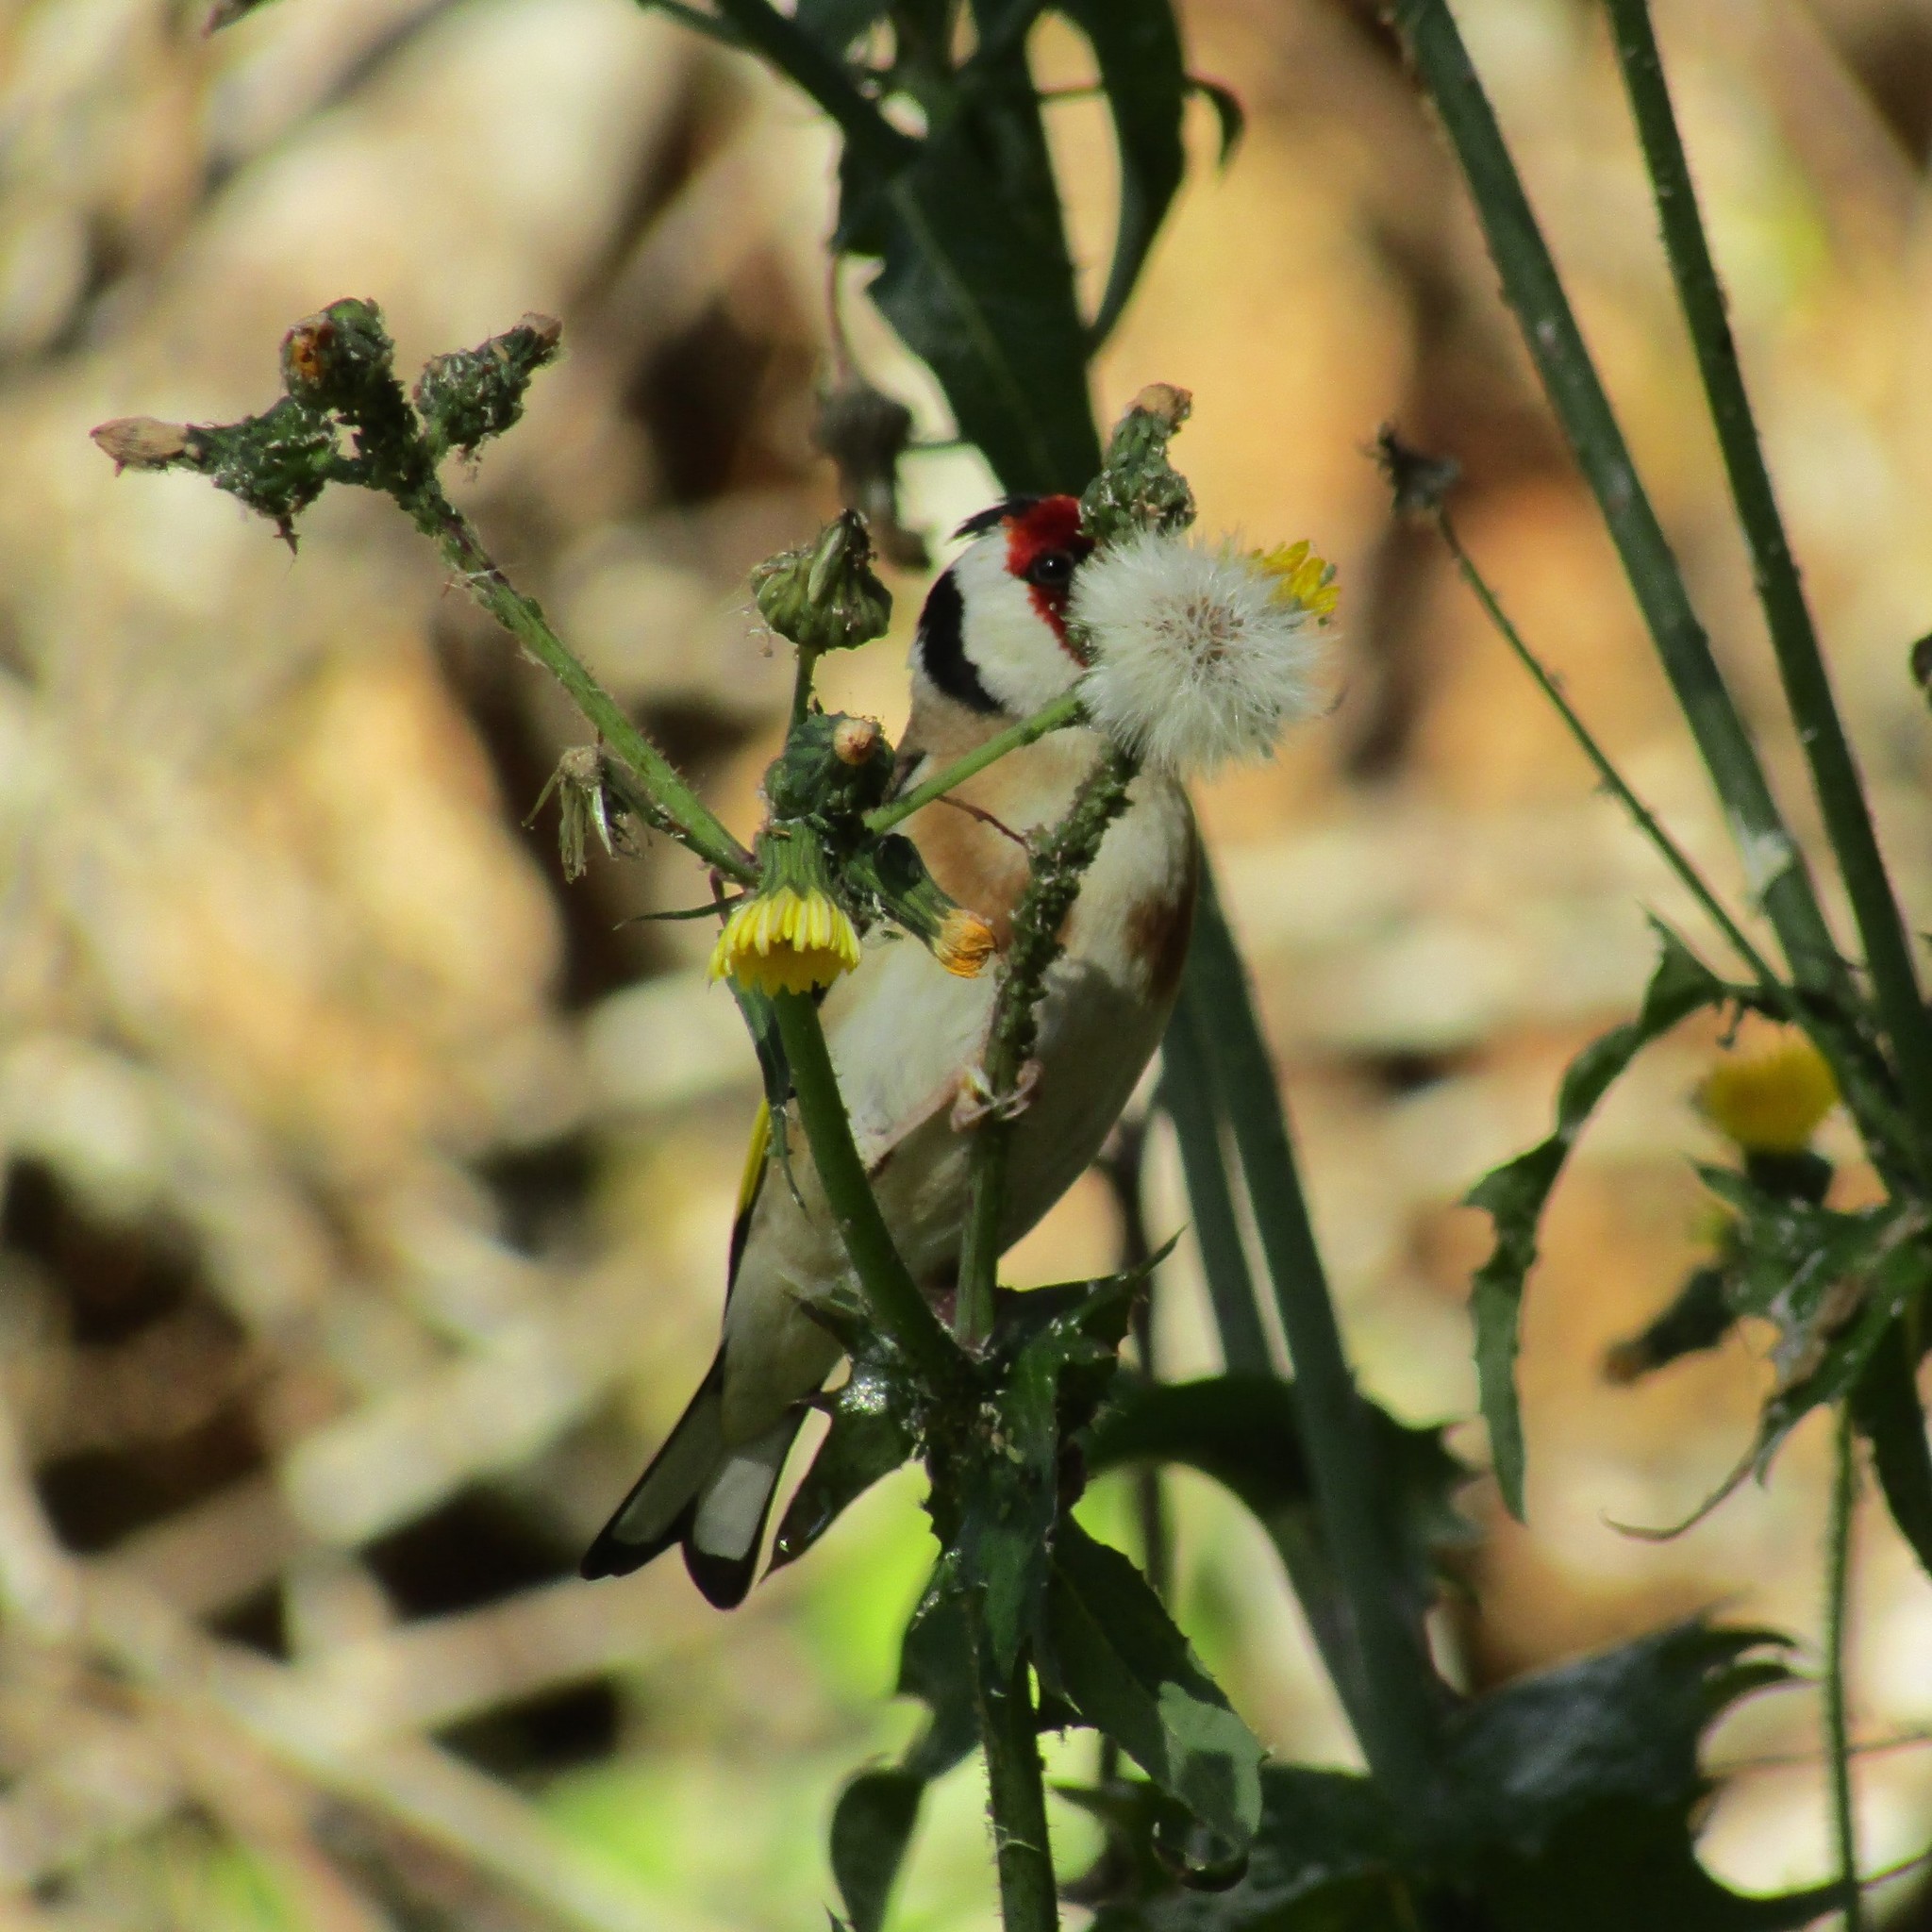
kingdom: Animalia
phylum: Chordata
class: Aves
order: Passeriformes
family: Fringillidae
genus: Carduelis
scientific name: Carduelis carduelis
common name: European goldfinch
